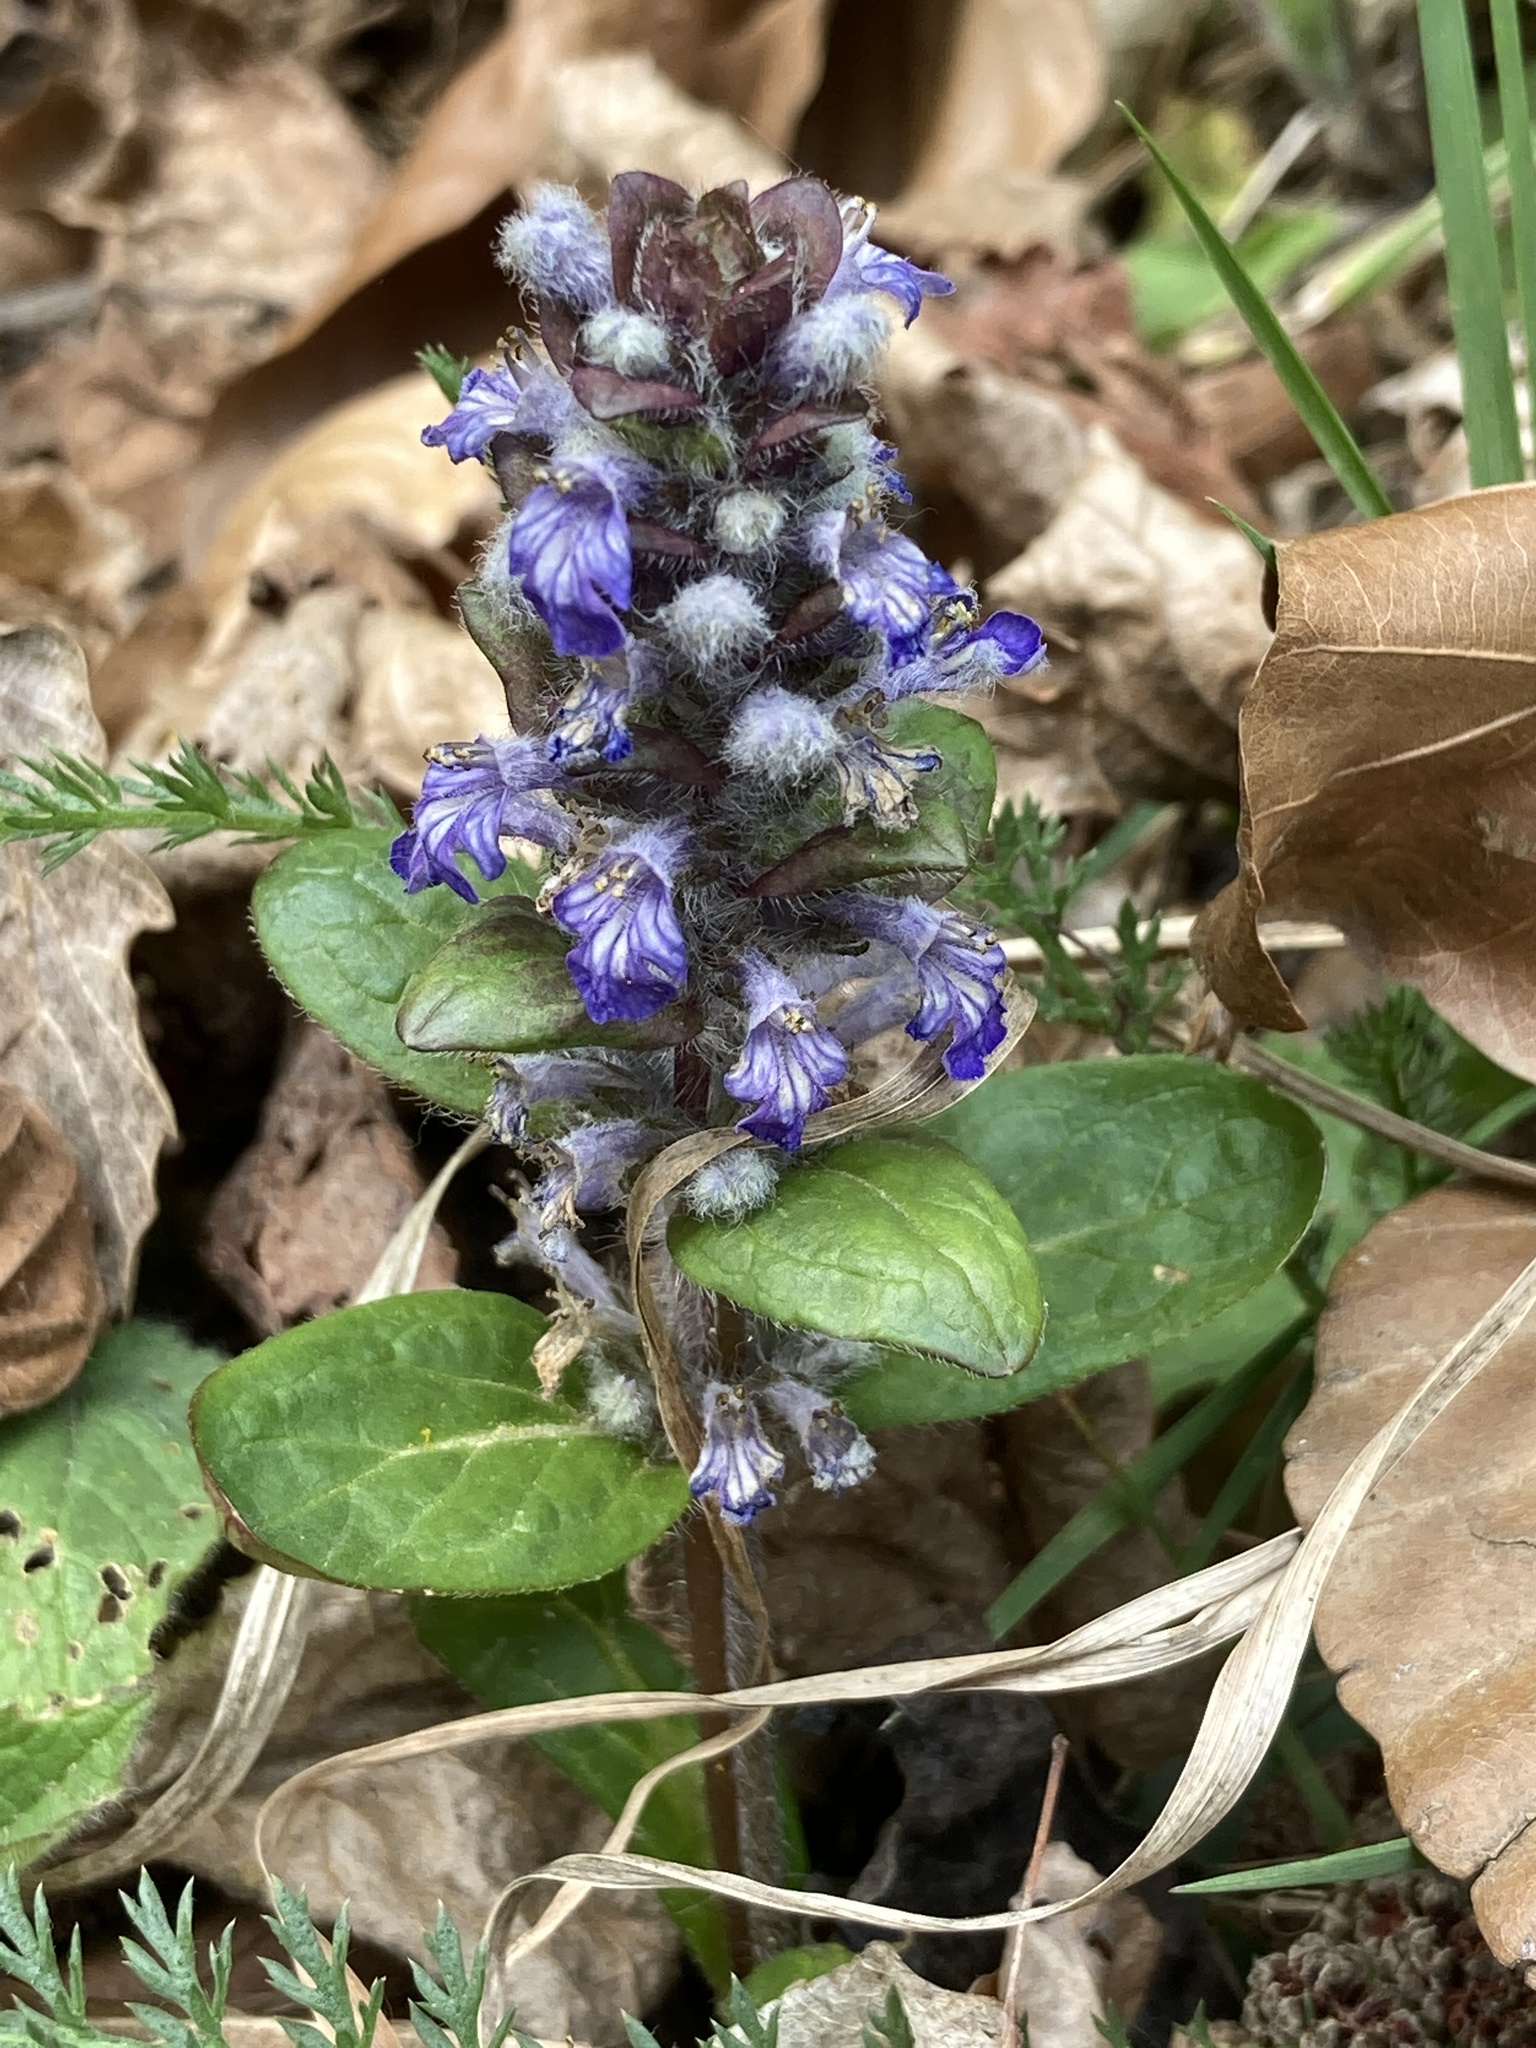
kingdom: Plantae
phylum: Tracheophyta
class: Magnoliopsida
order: Lamiales
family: Lamiaceae
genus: Ajuga
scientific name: Ajuga reptans
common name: Bugle
